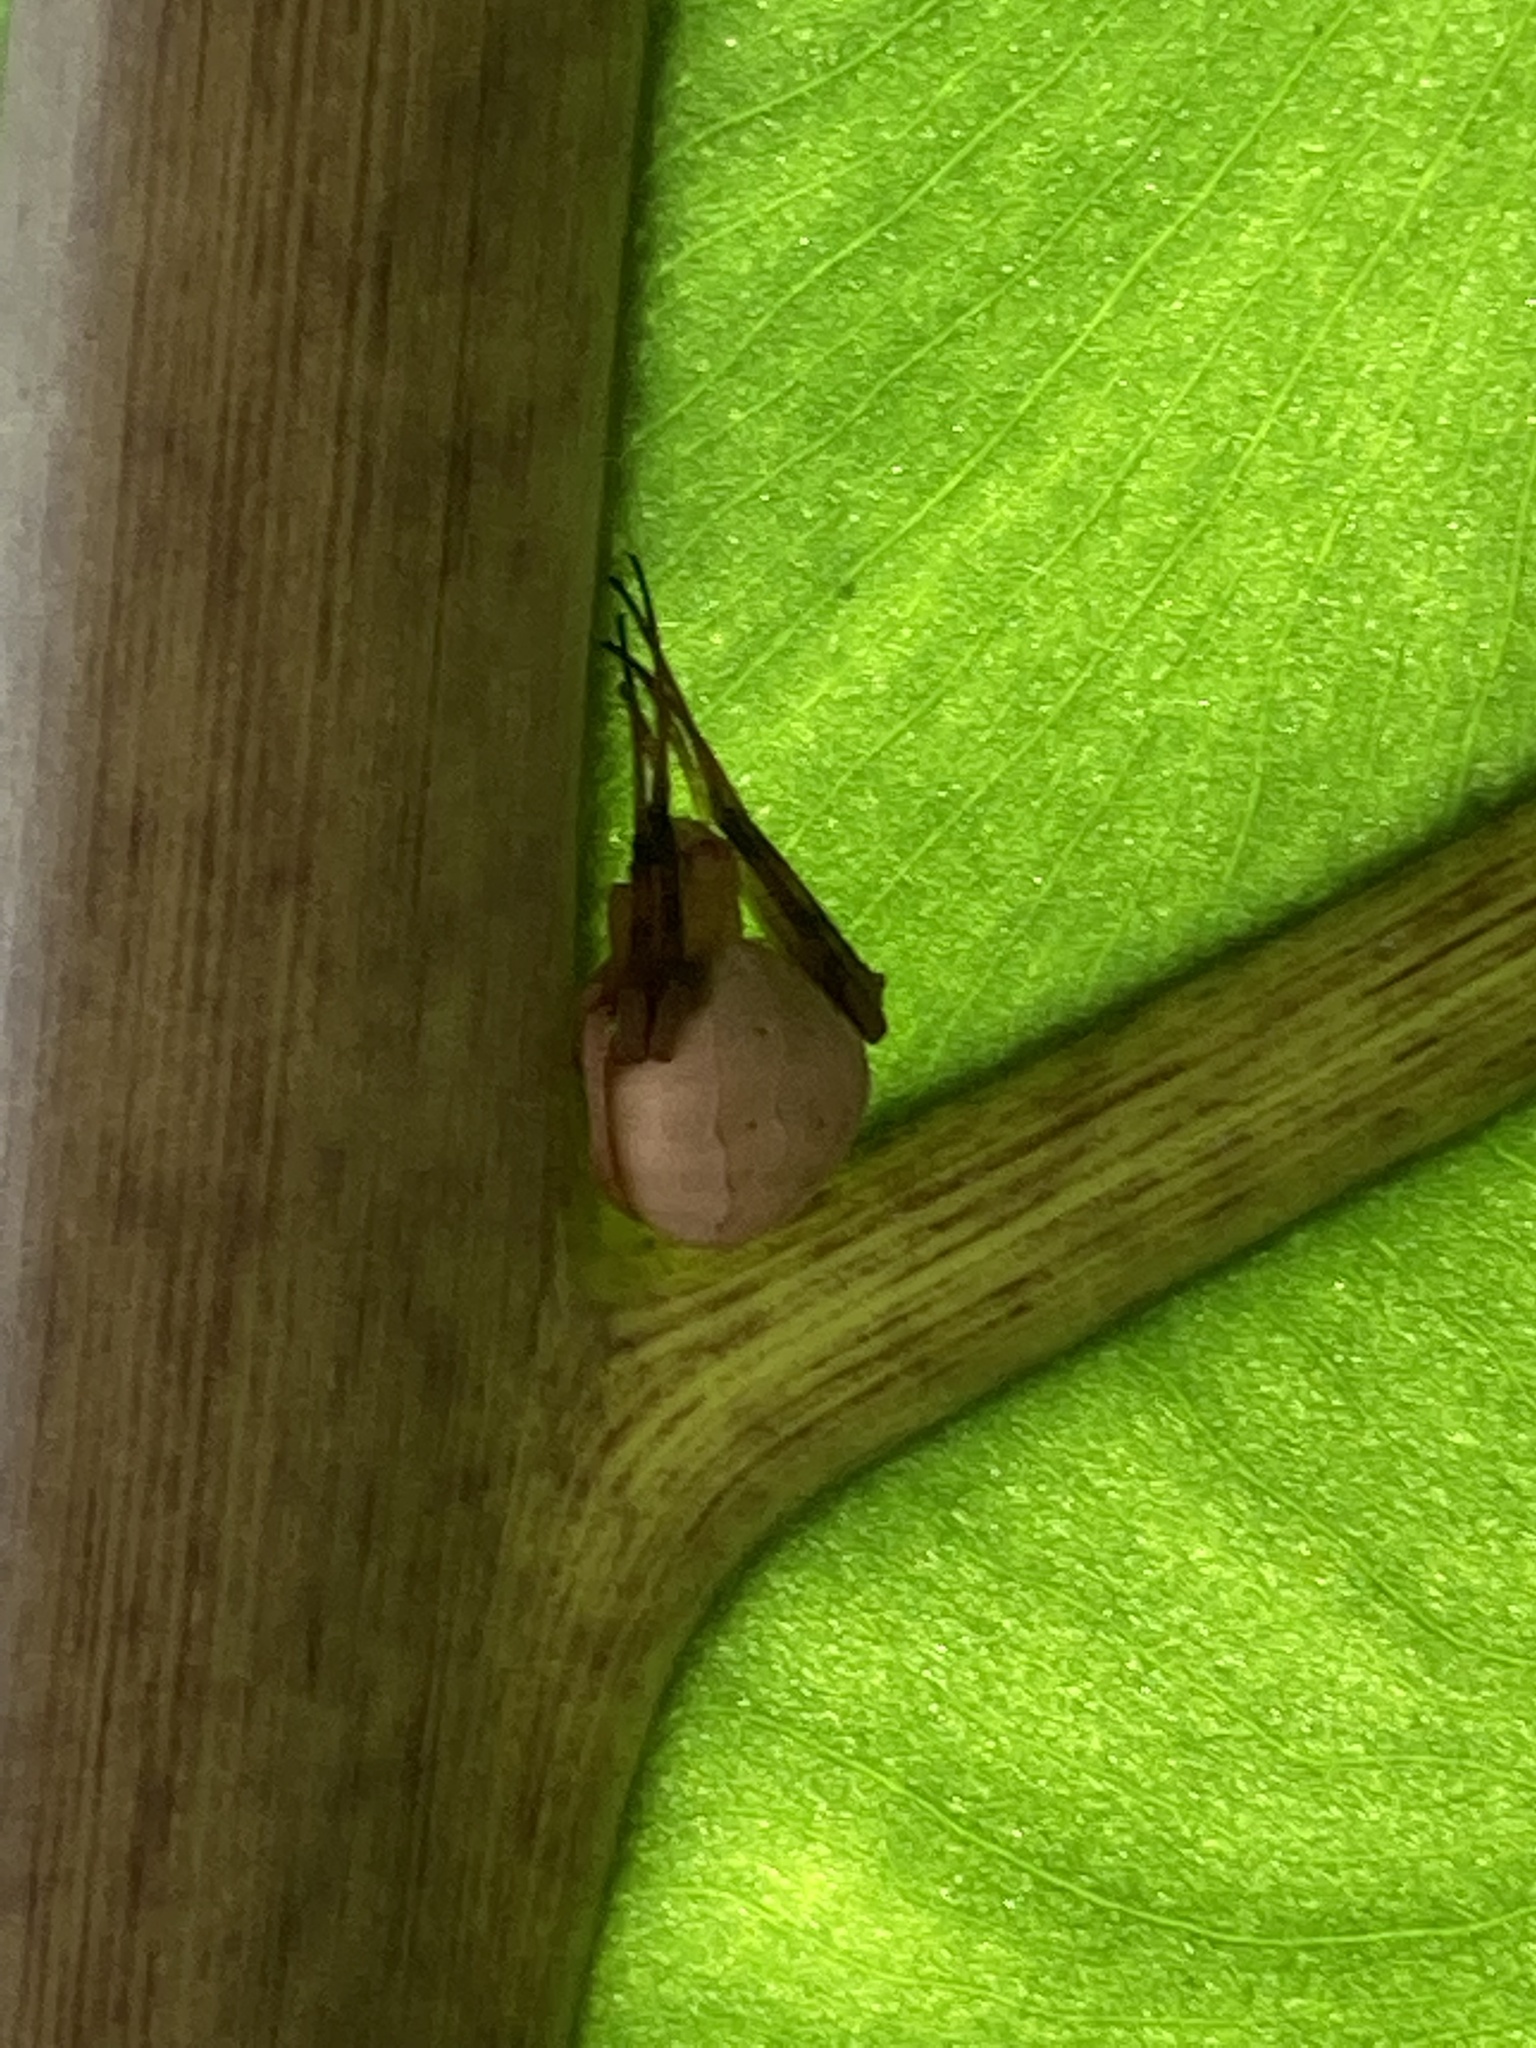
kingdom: Animalia
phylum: Arthropoda
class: Arachnida
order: Araneae
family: Araneidae
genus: Acacesia
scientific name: Acacesia hamata
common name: Orb weavers
